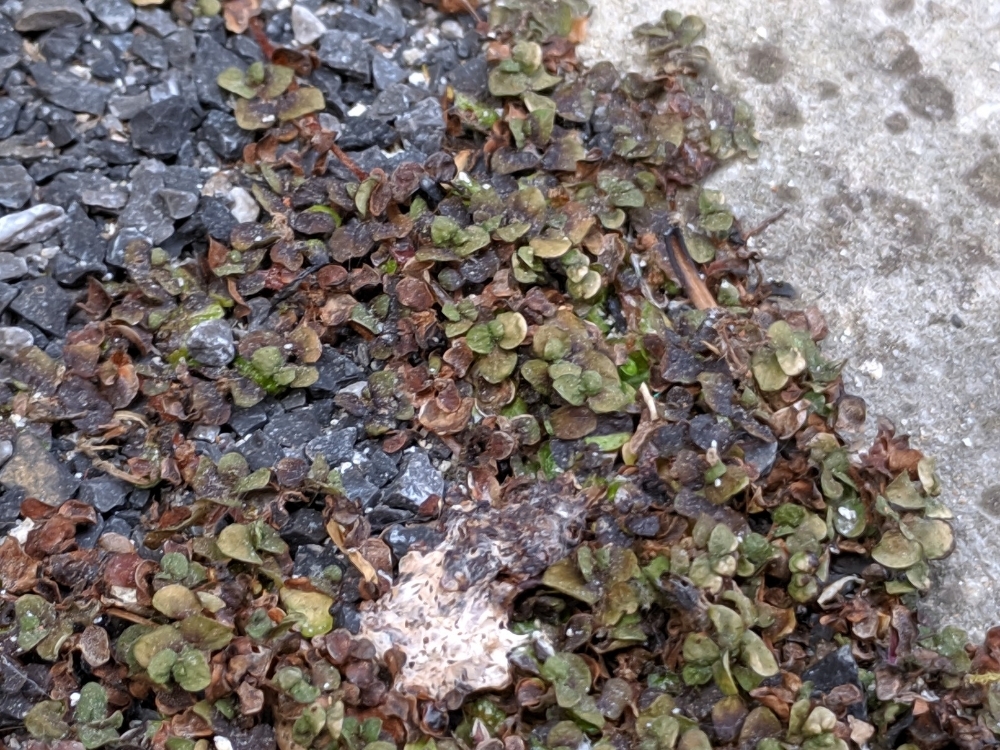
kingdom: Plantae
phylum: Tracheophyta
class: Magnoliopsida
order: Rosales
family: Urticaceae
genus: Soleirolia
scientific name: Soleirolia soleirolii
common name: Mind-your-own-business
